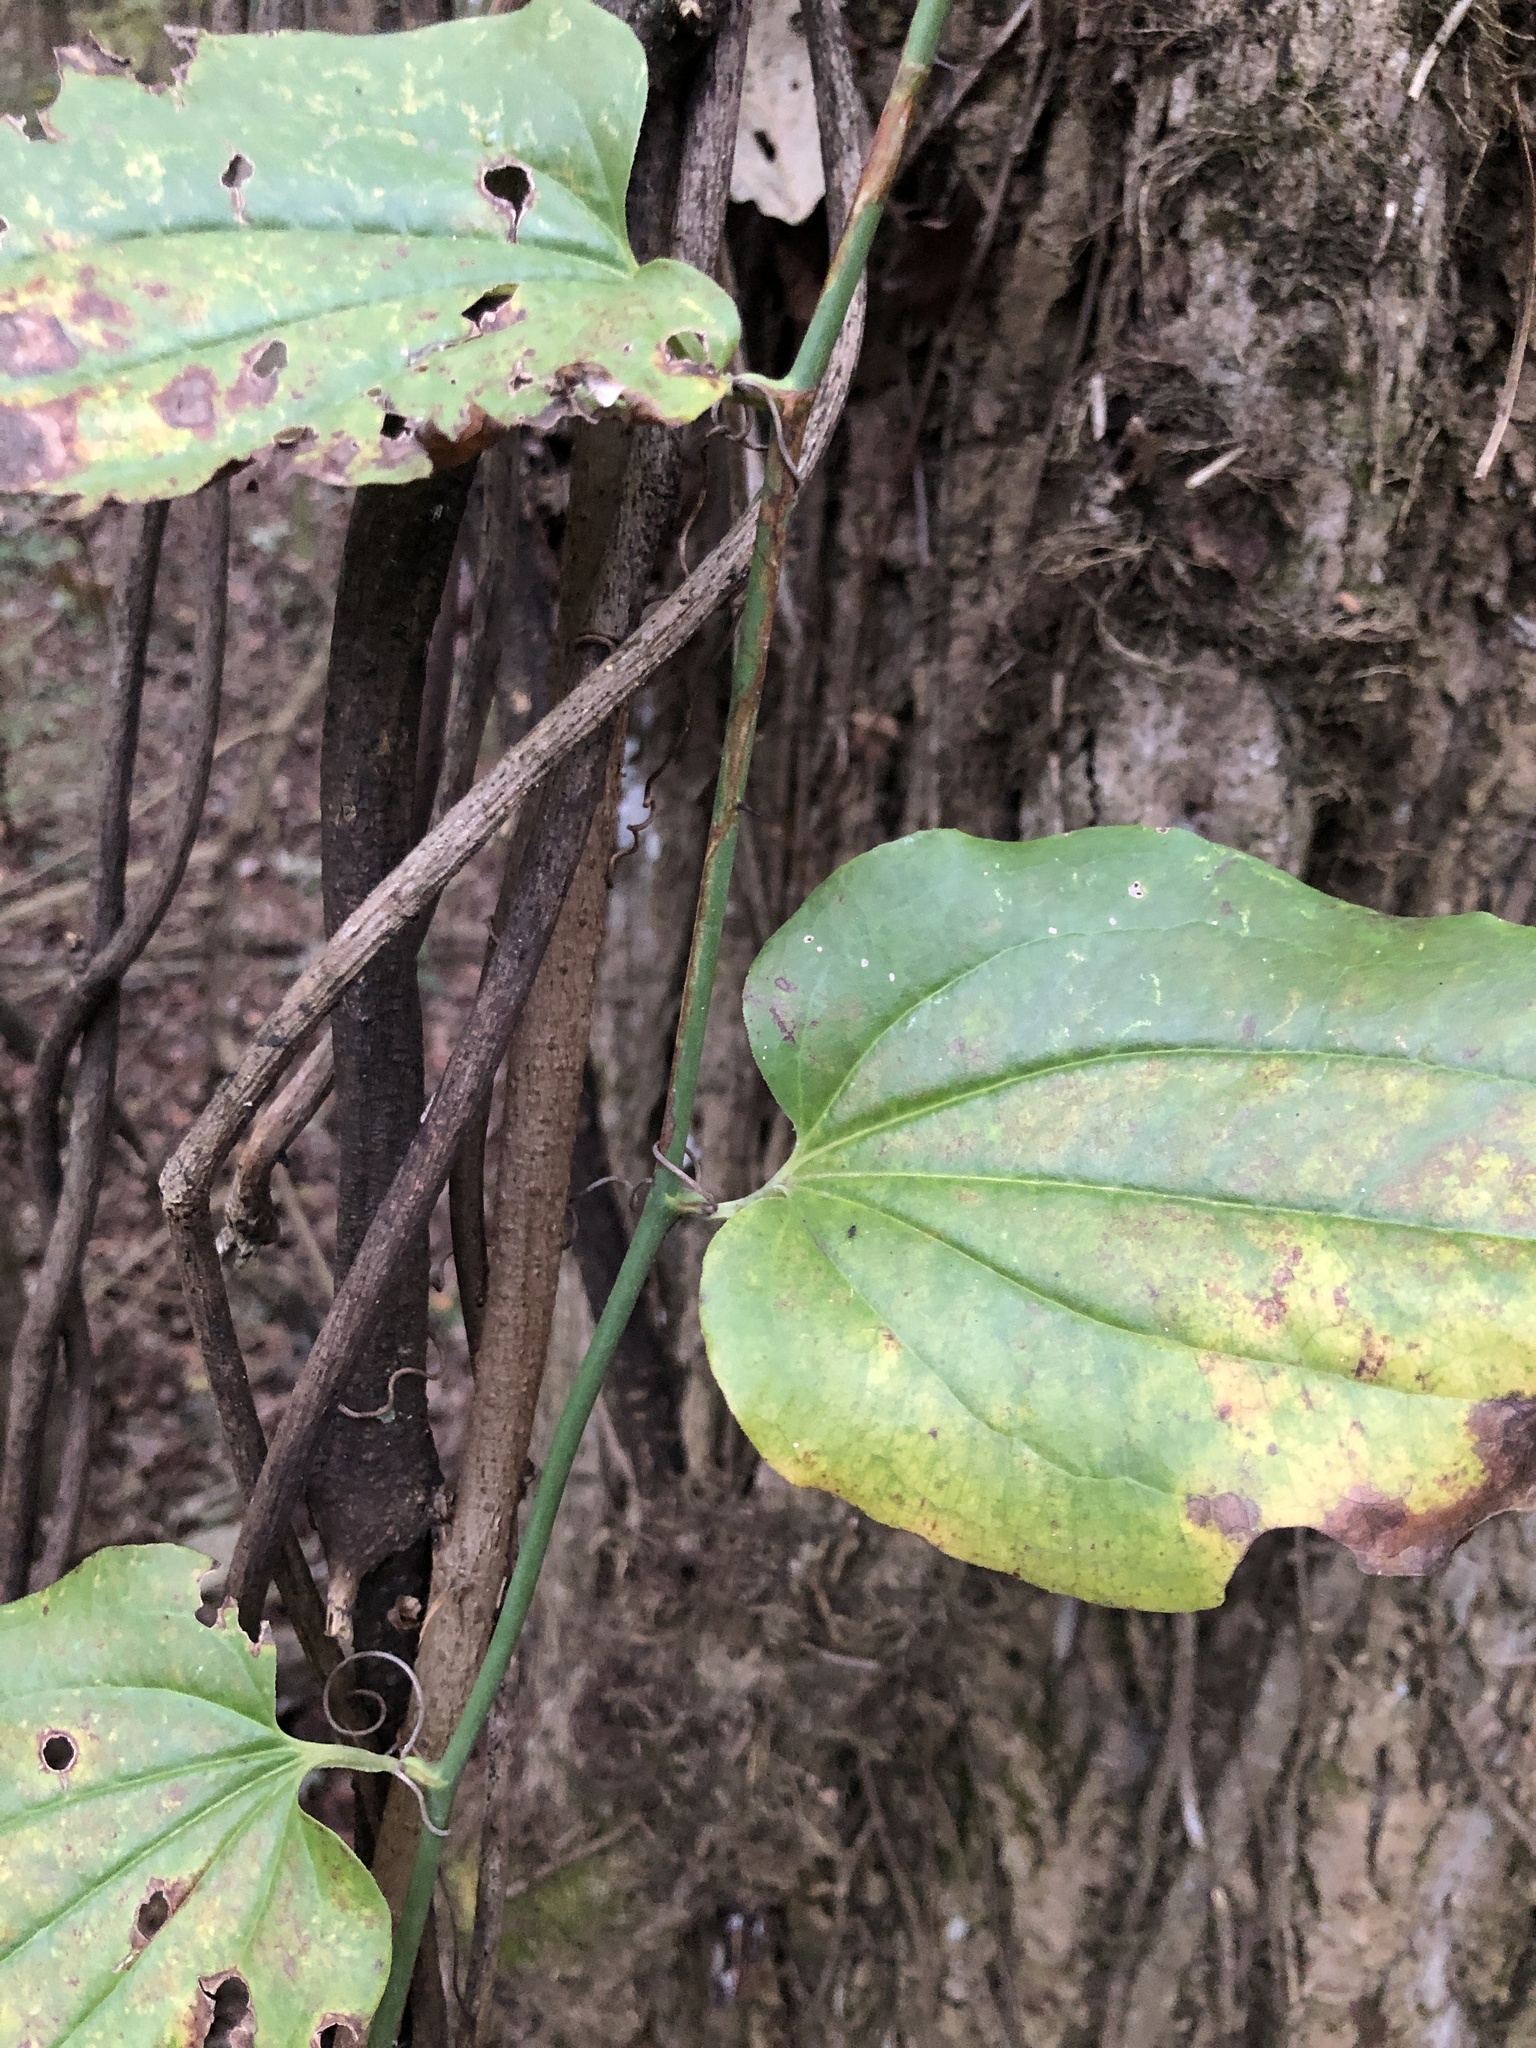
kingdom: Plantae
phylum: Tracheophyta
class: Liliopsida
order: Liliales
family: Smilacaceae
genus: Smilax
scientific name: Smilax rotundifolia
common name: Bullbriar
